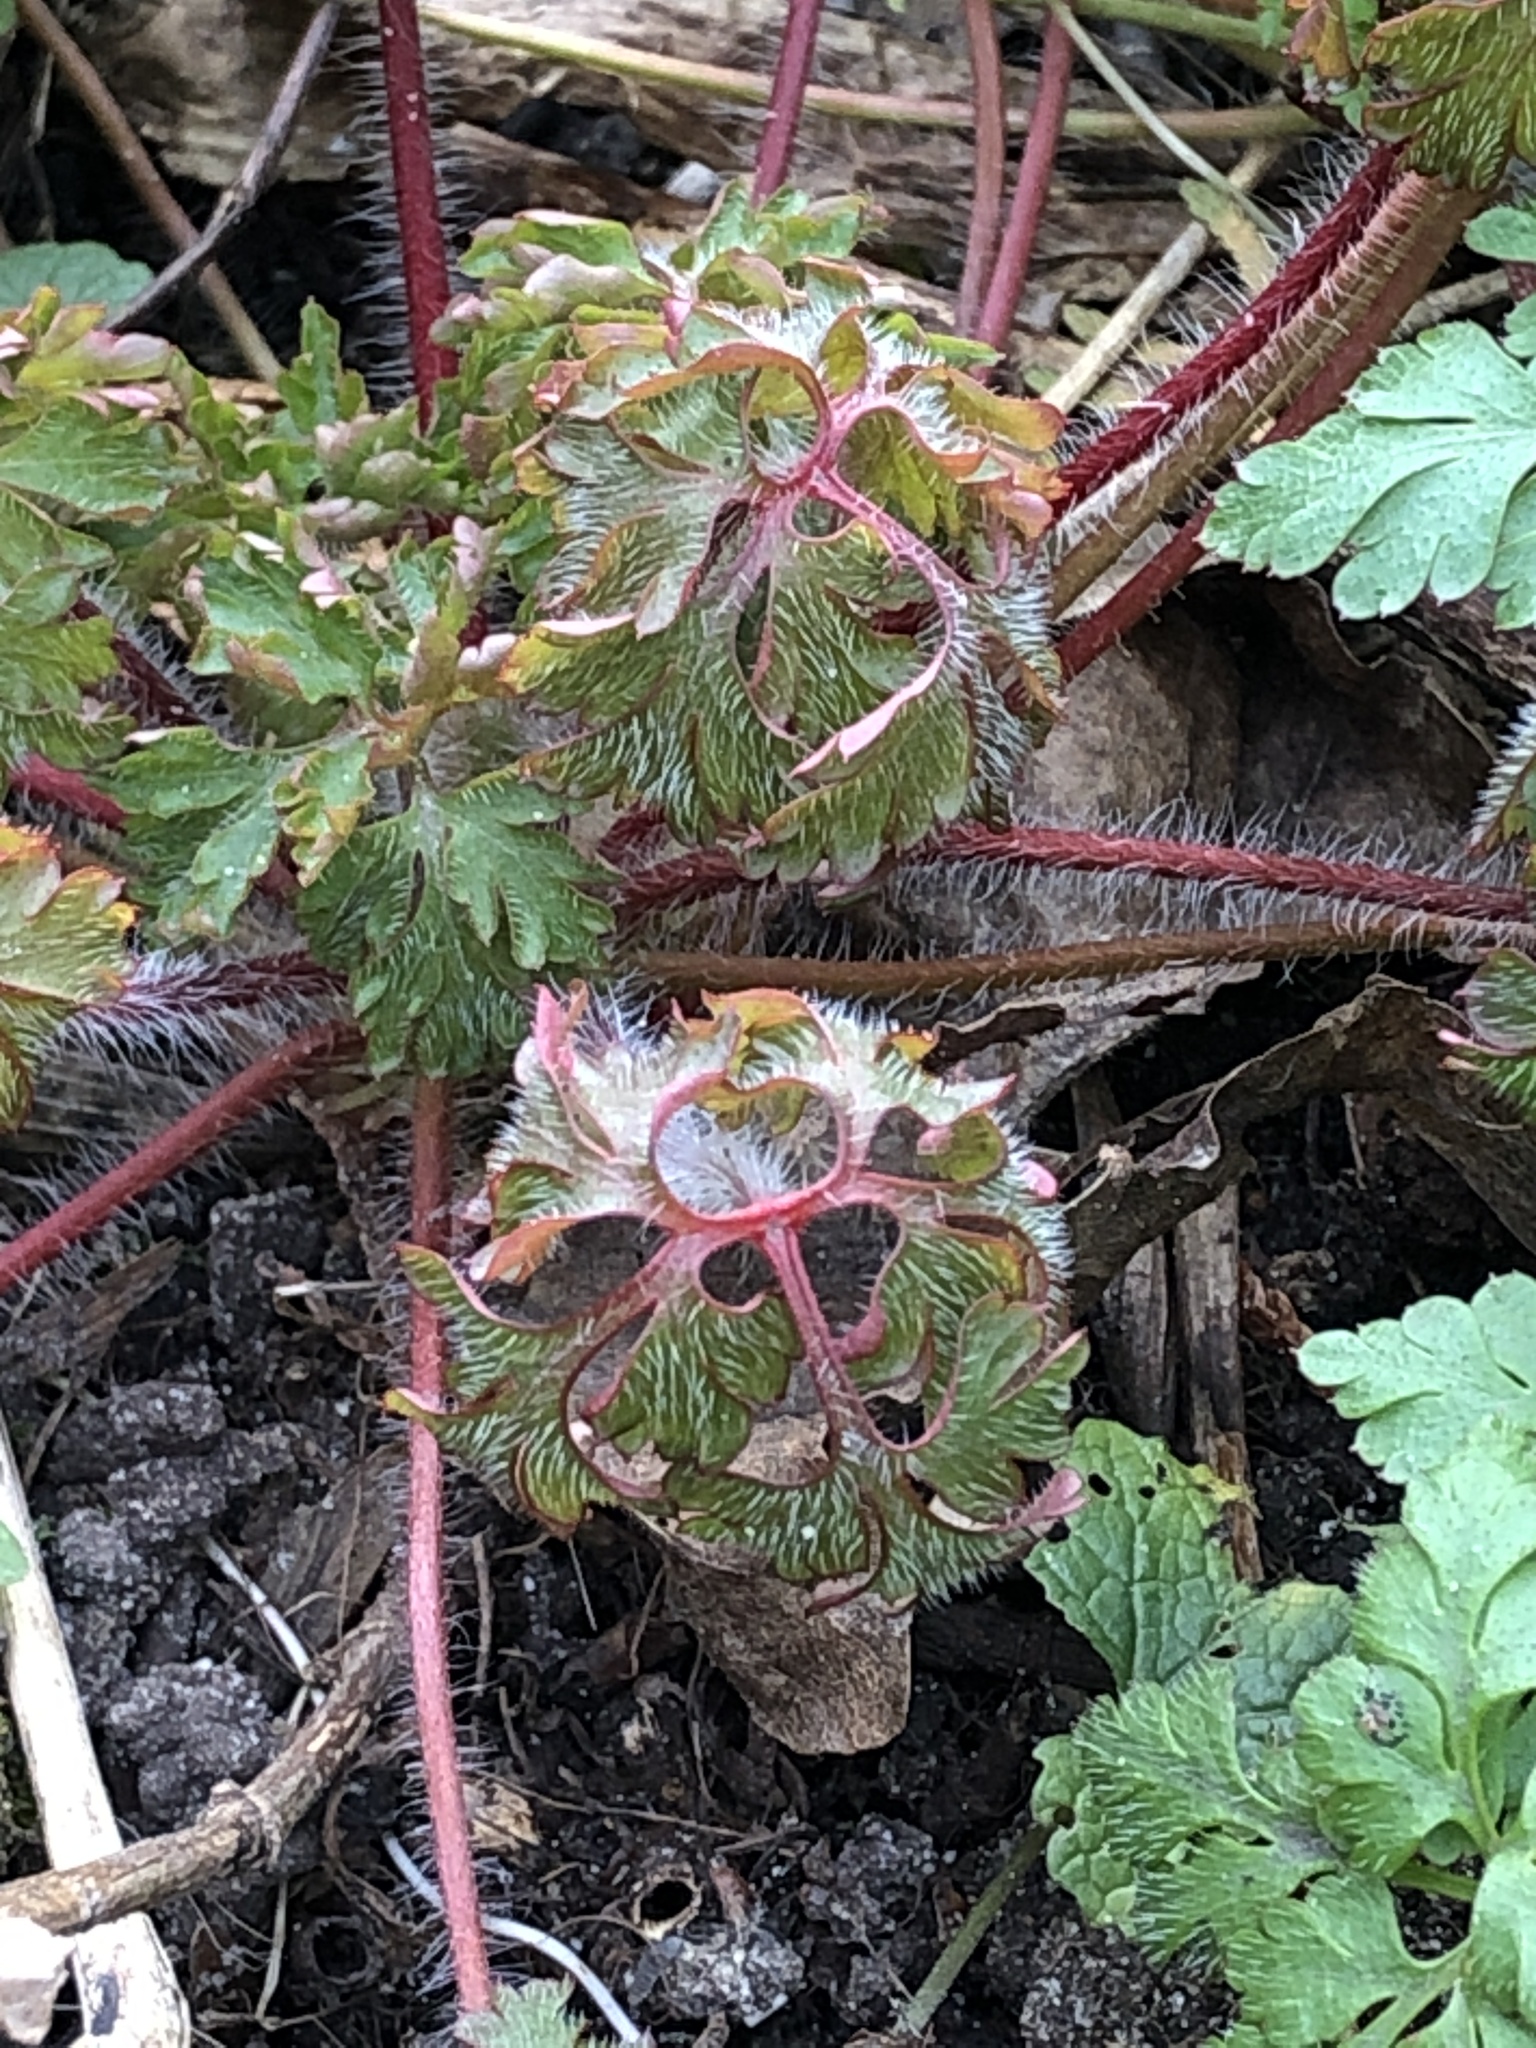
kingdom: Plantae
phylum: Tracheophyta
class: Magnoliopsida
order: Geraniales
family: Geraniaceae
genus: Geranium
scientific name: Geranium robertianum
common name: Herb-robert
